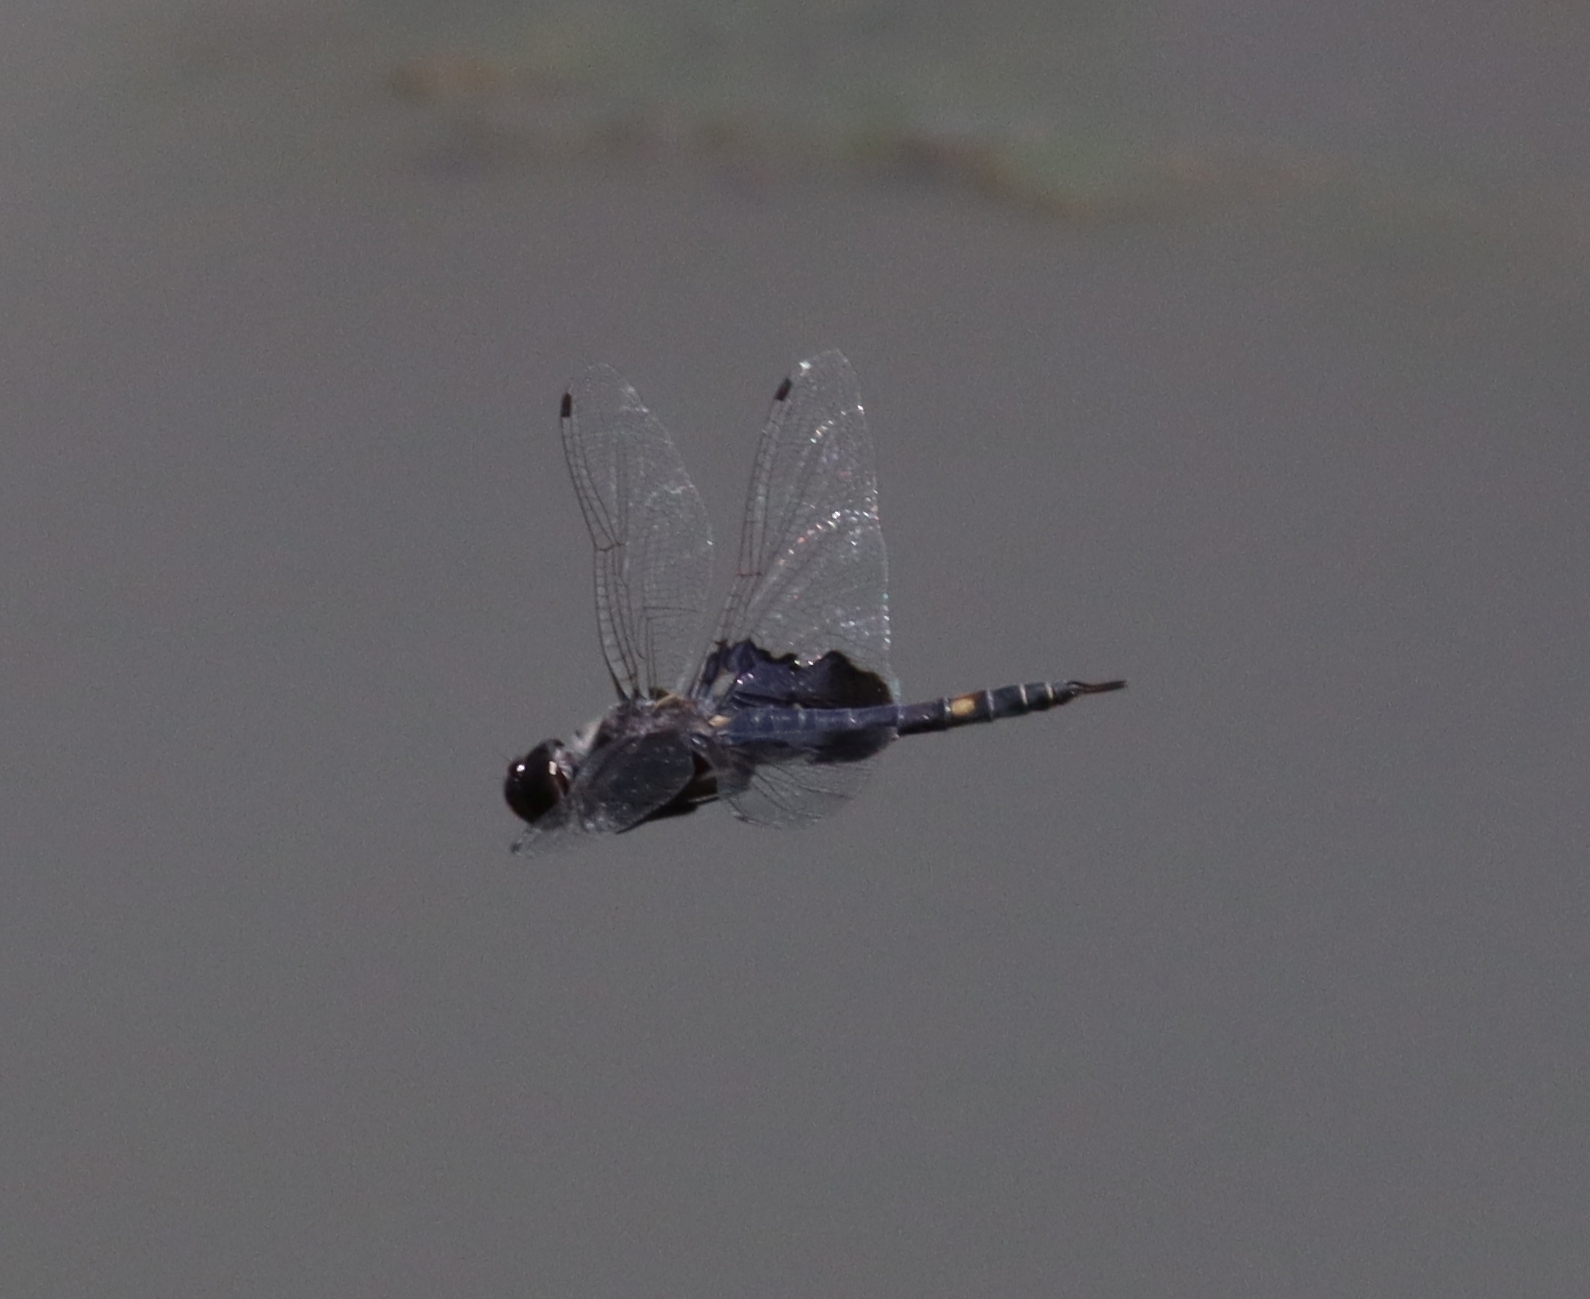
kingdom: Animalia
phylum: Arthropoda
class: Insecta
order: Odonata
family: Libellulidae
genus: Tramea
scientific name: Tramea lacerata
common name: Black saddlebags
